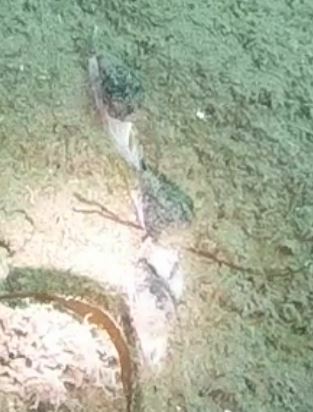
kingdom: Animalia
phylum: Mollusca
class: Gastropoda
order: Neogastropoda
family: Conidae
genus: Californiconus
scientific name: Californiconus californicus
